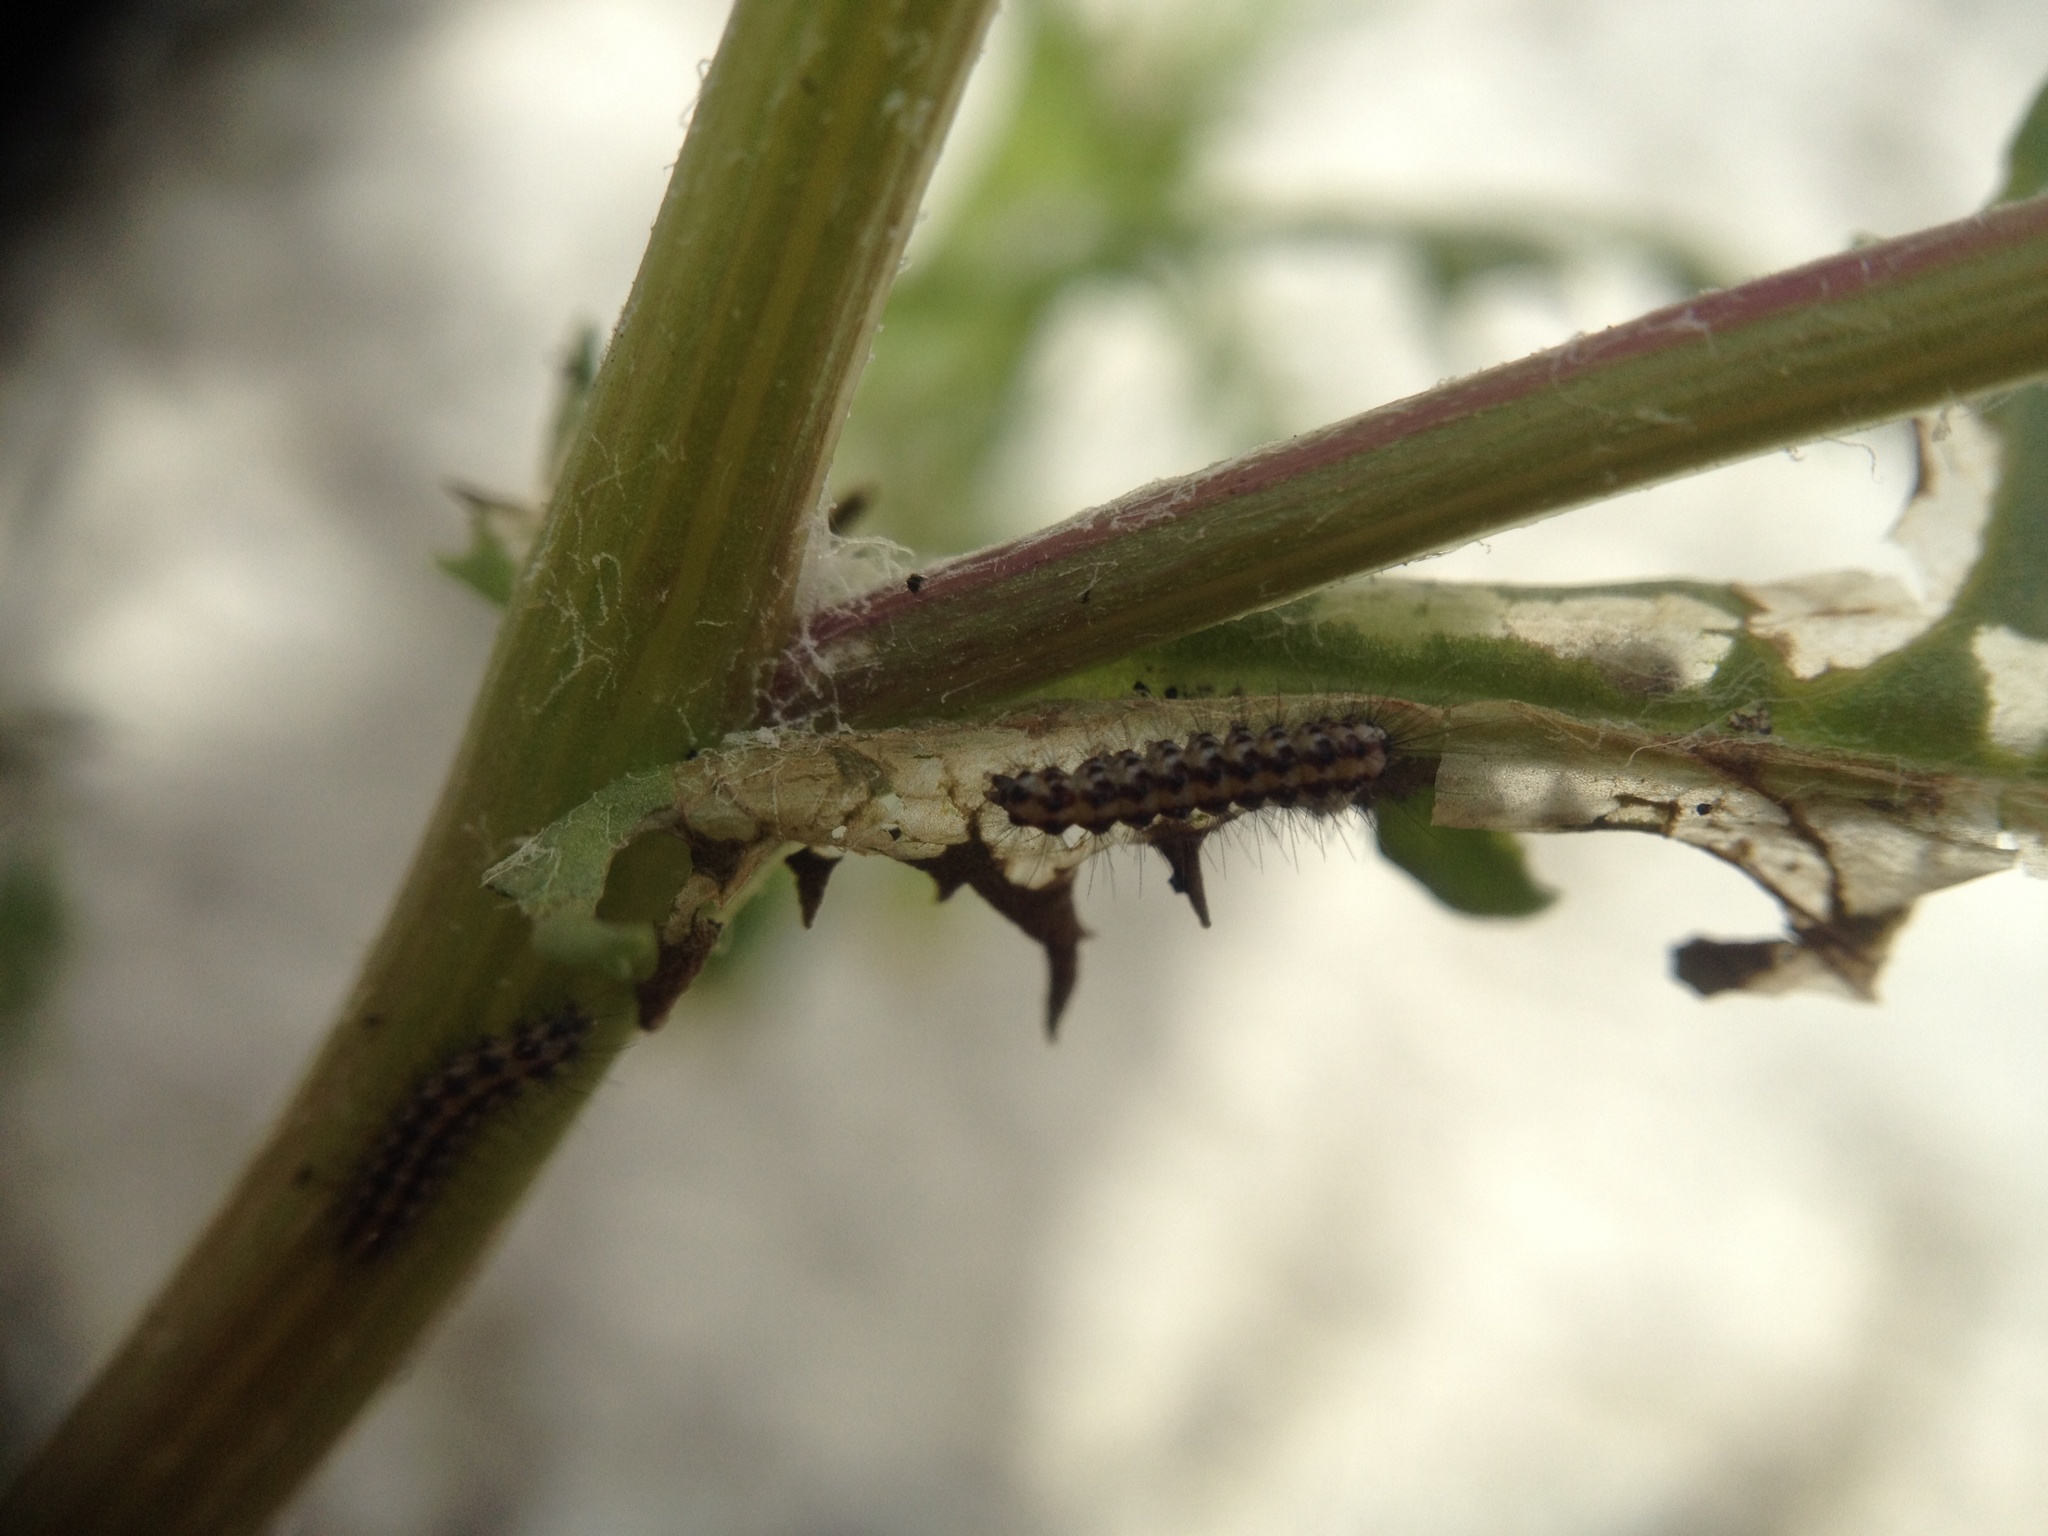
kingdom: Animalia
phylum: Arthropoda
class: Insecta
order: Lepidoptera
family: Erebidae
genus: Nyctemera
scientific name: Nyctemera annulatum
